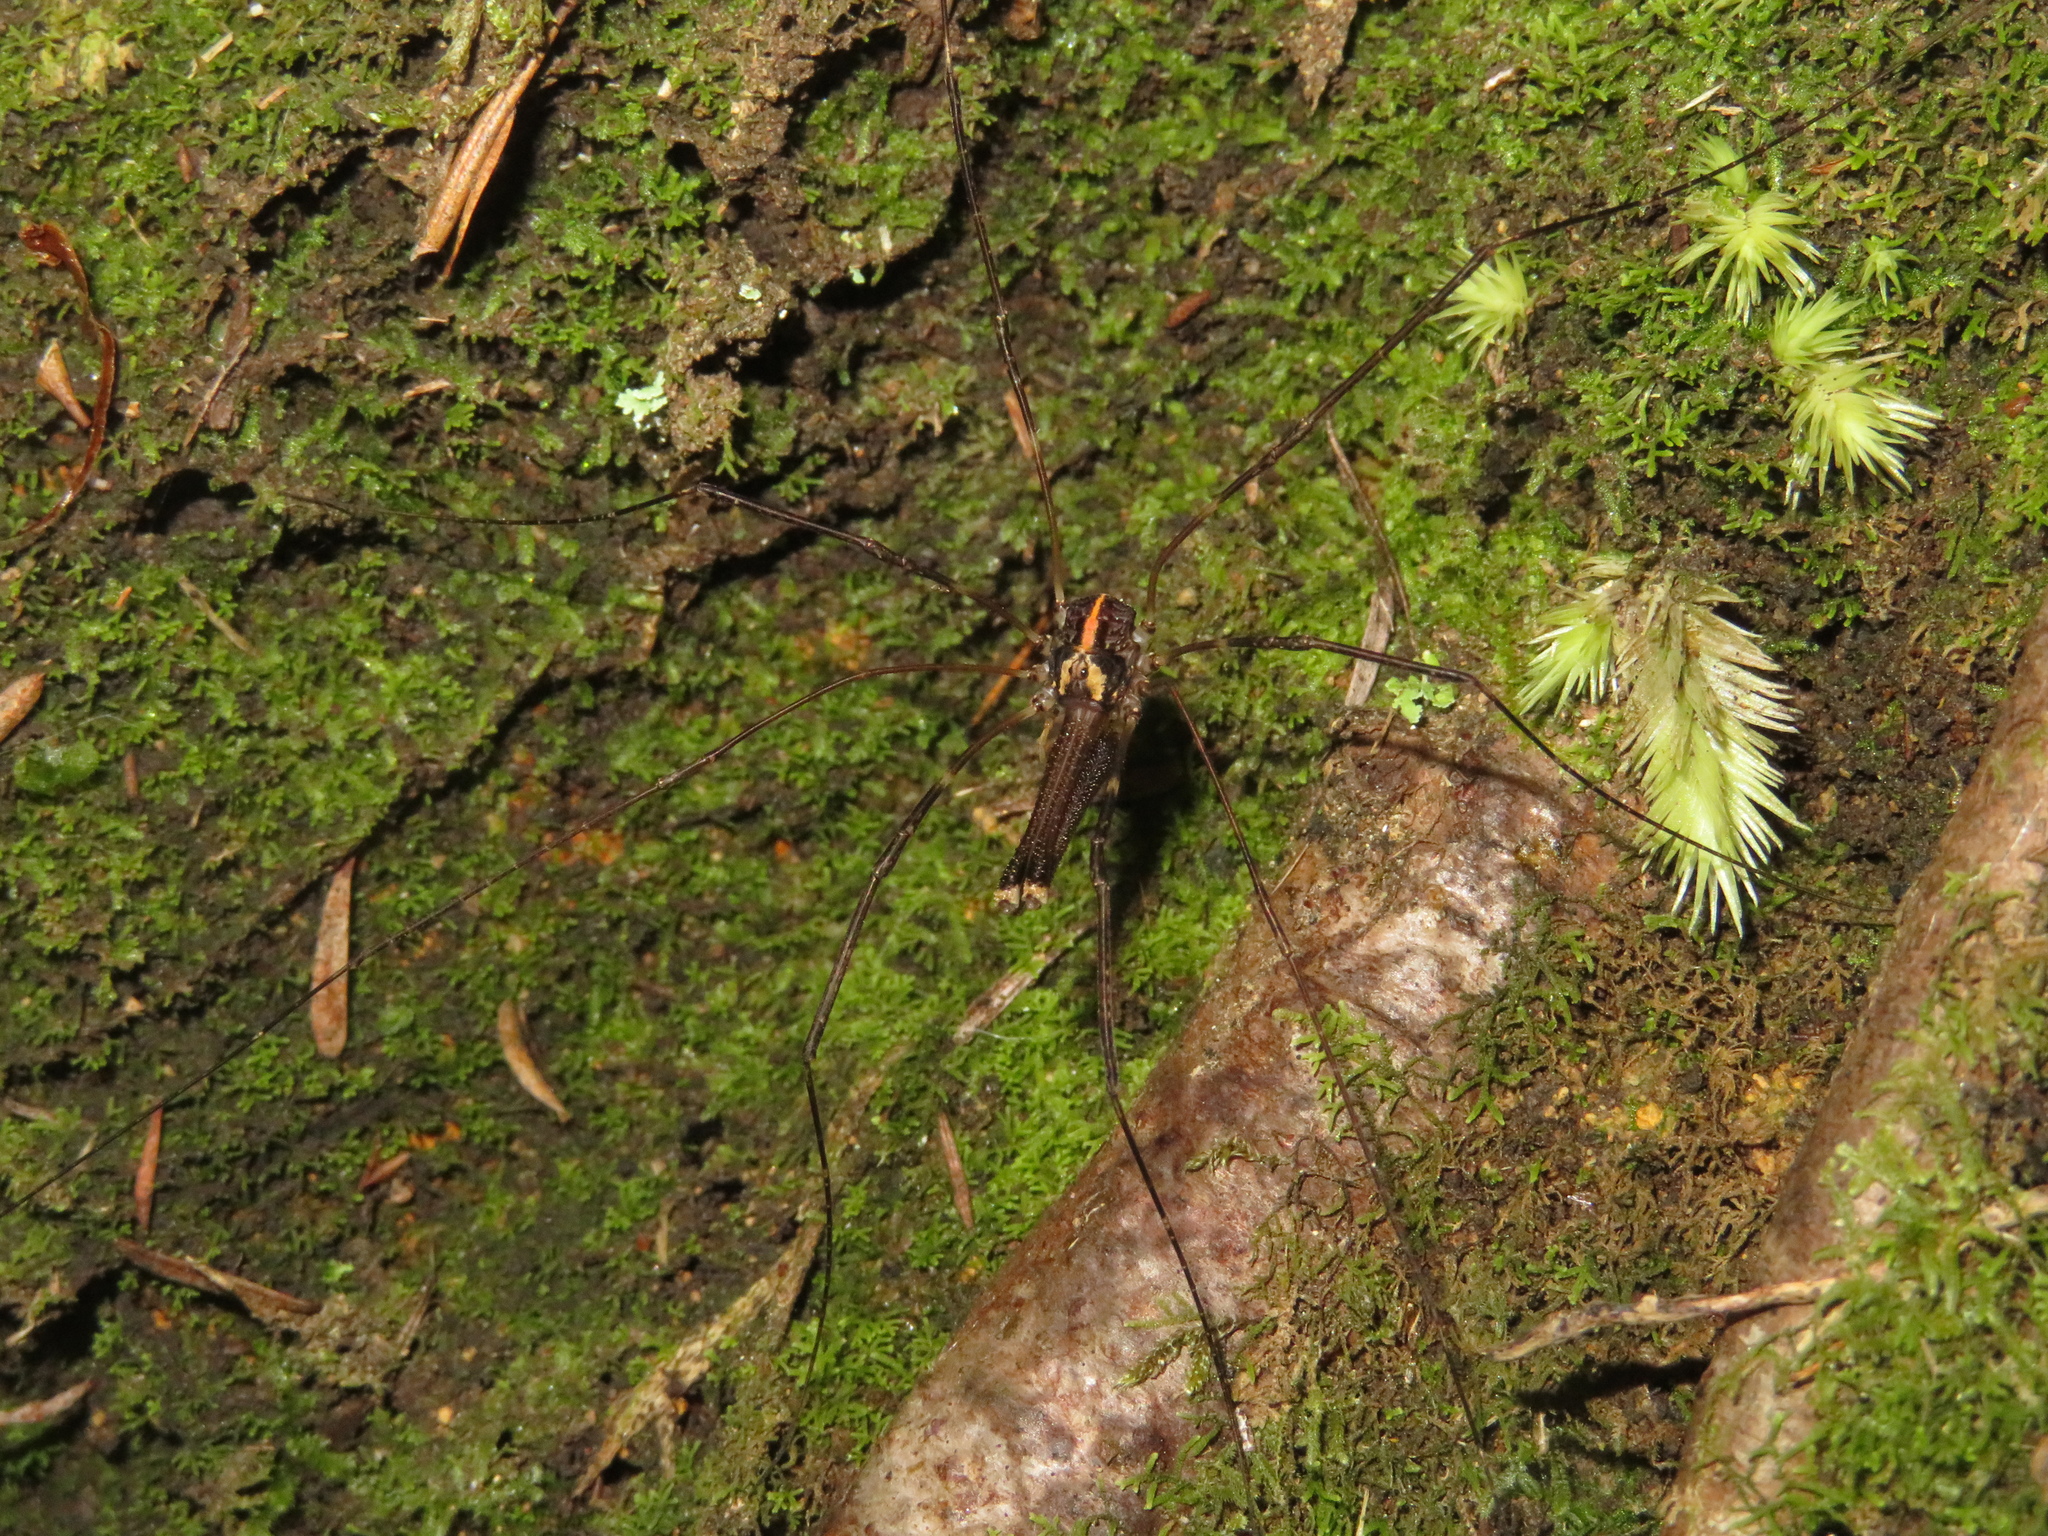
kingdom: Animalia
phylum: Arthropoda
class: Arachnida
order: Opiliones
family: Neopilionidae
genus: Forsteropsalis
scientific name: Forsteropsalis pureora
